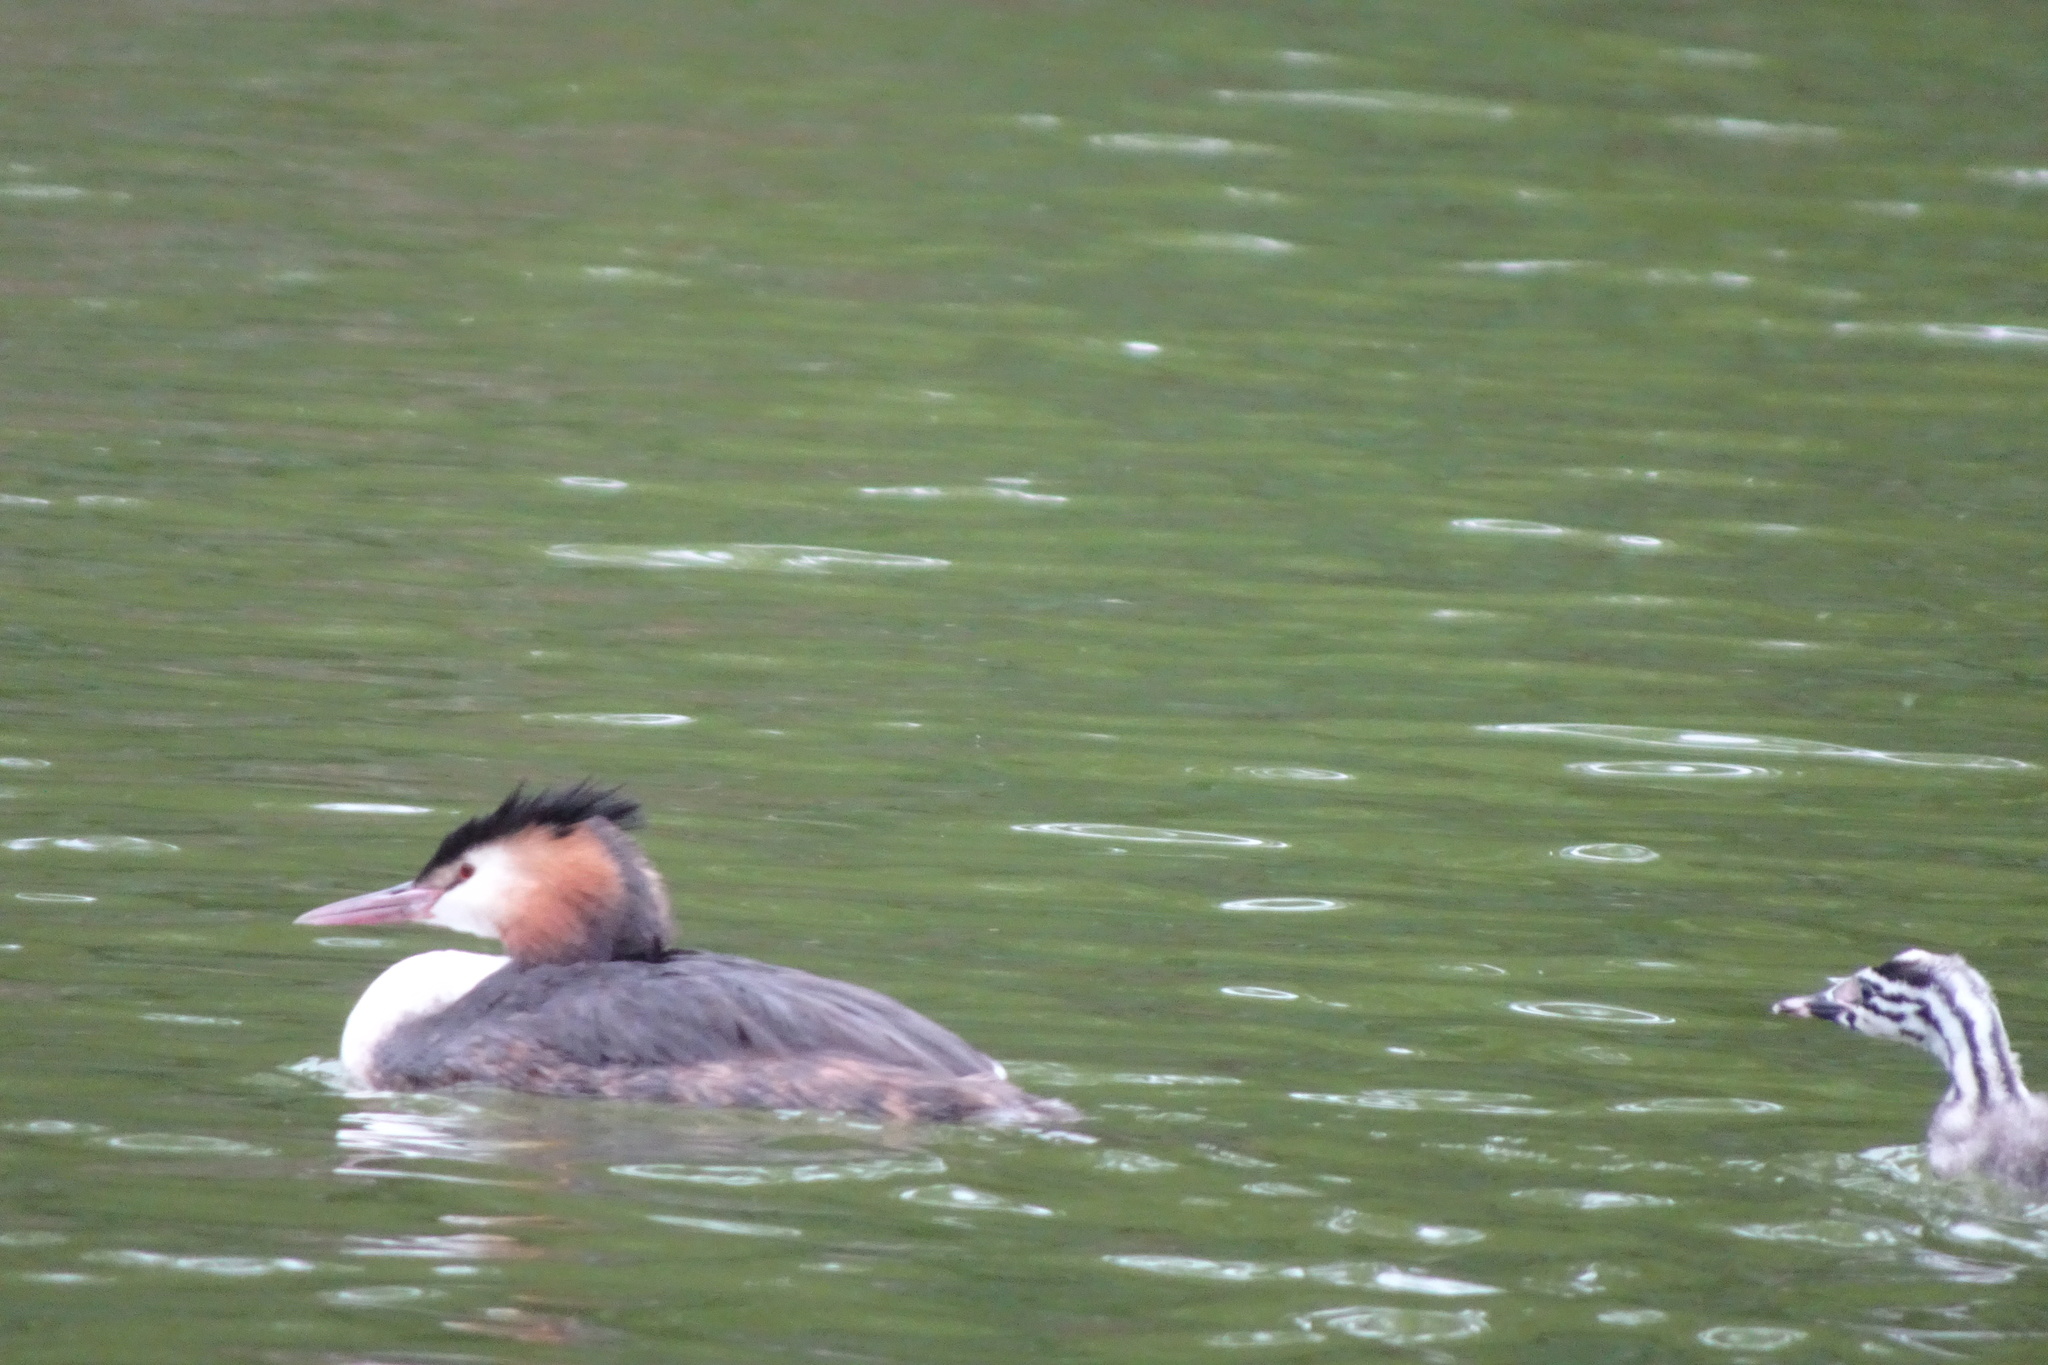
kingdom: Animalia
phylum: Chordata
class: Aves
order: Podicipediformes
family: Podicipedidae
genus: Podiceps
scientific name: Podiceps cristatus
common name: Great crested grebe
